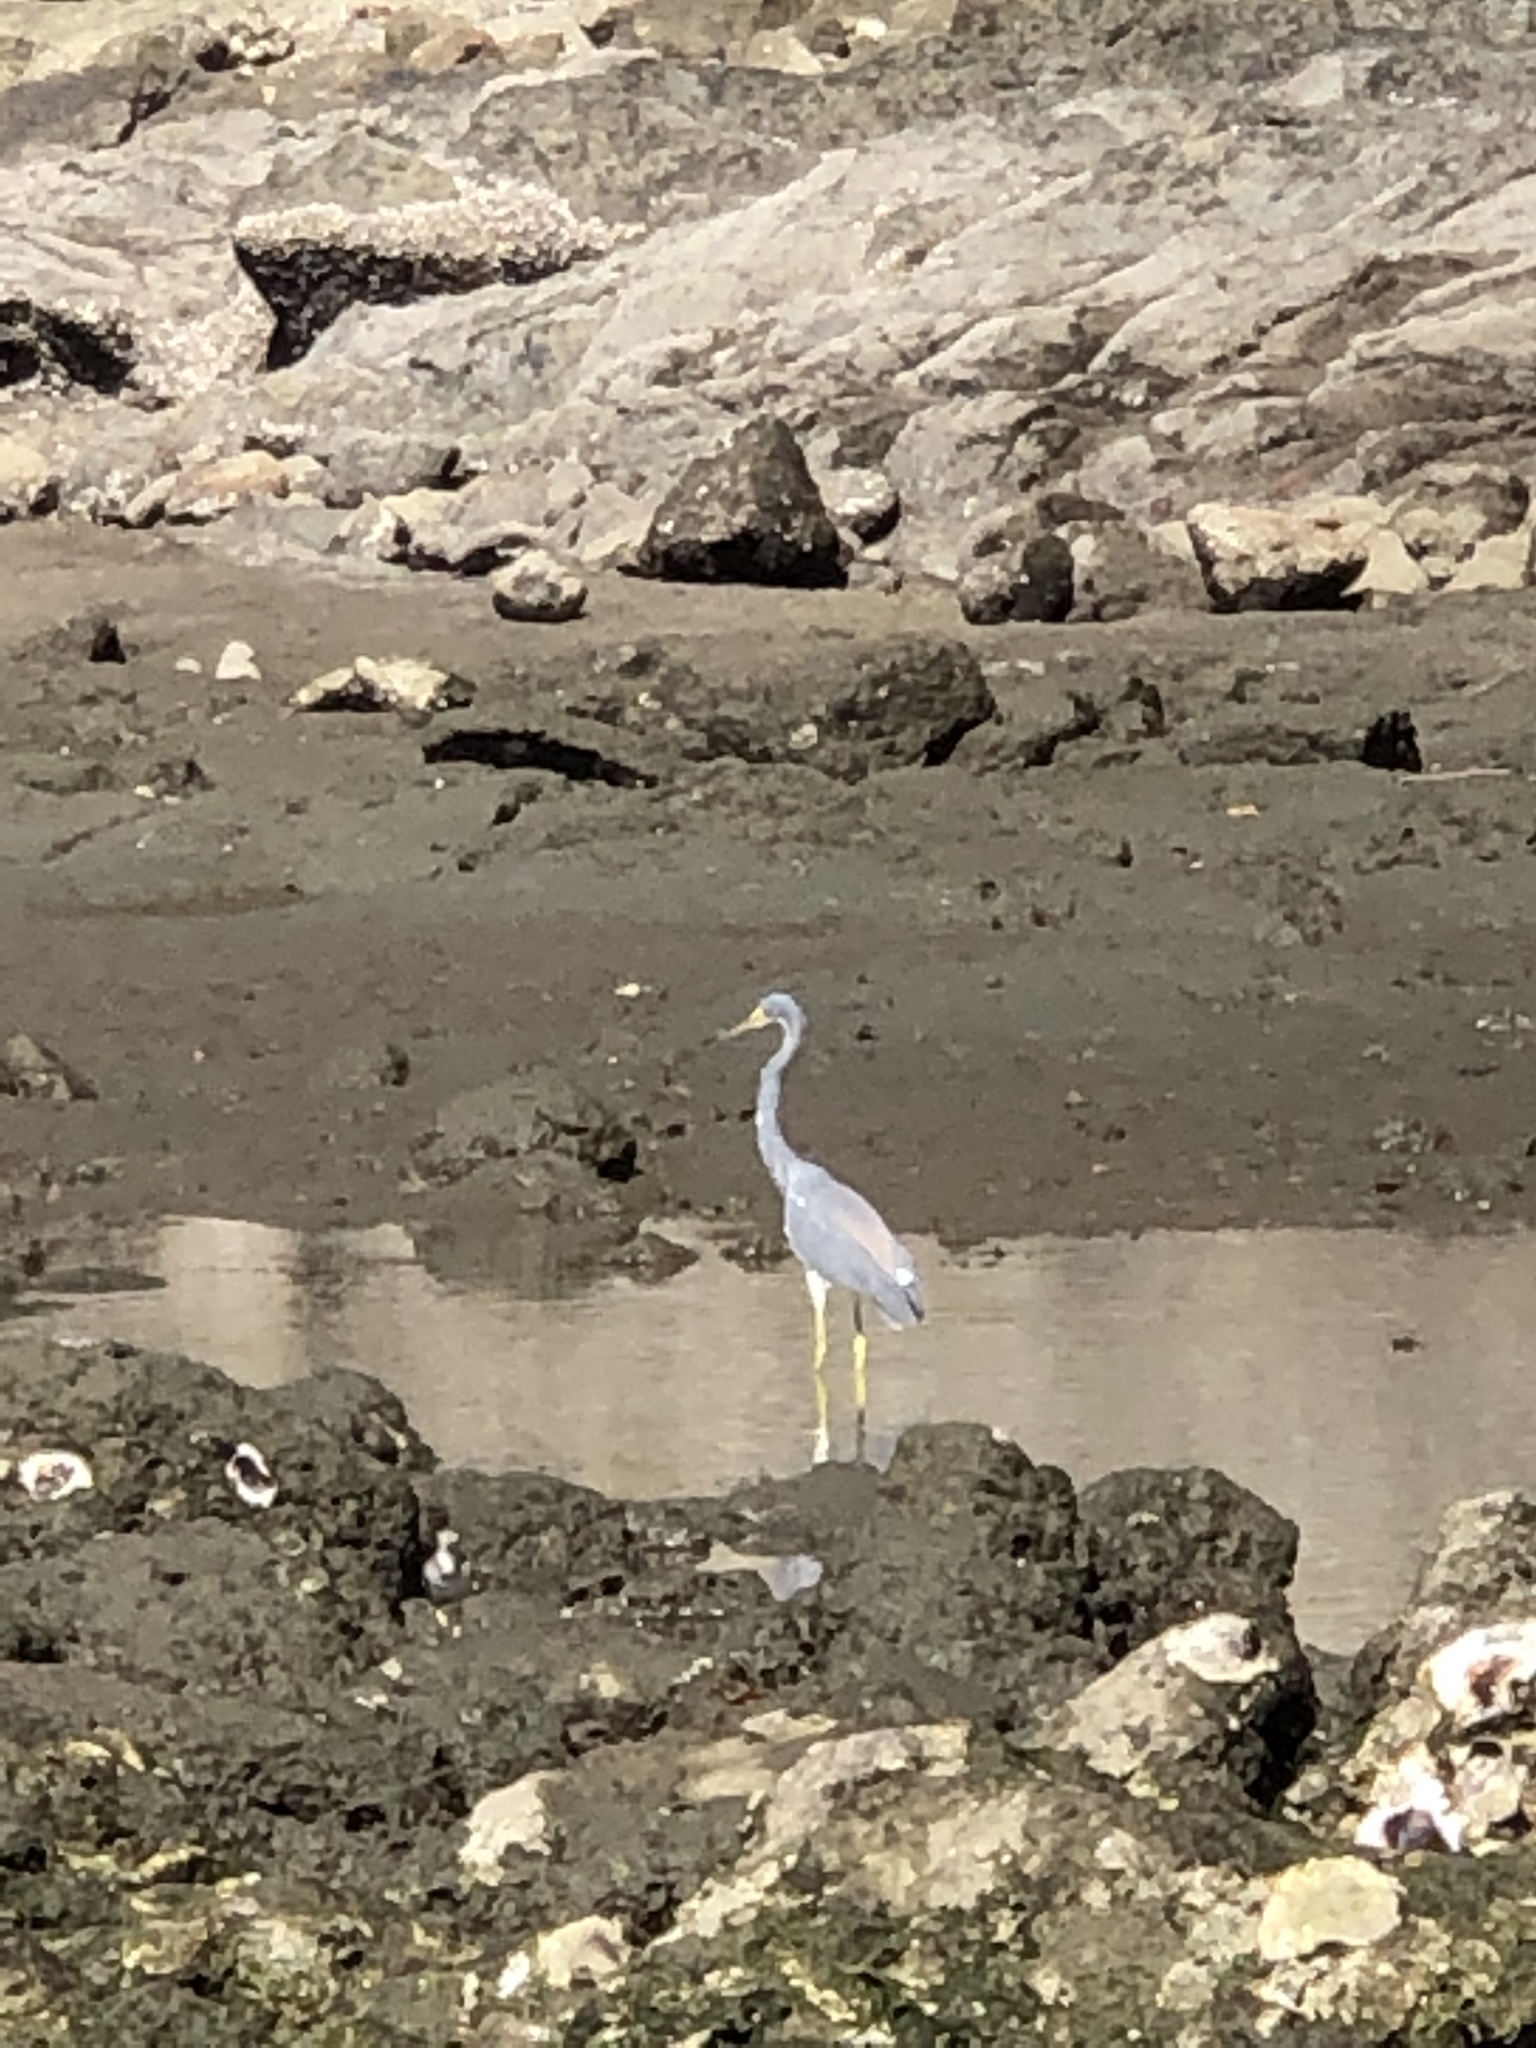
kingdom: Animalia
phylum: Chordata
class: Aves
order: Pelecaniformes
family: Ardeidae
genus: Egretta
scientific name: Egretta tricolor
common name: Tricolored heron
